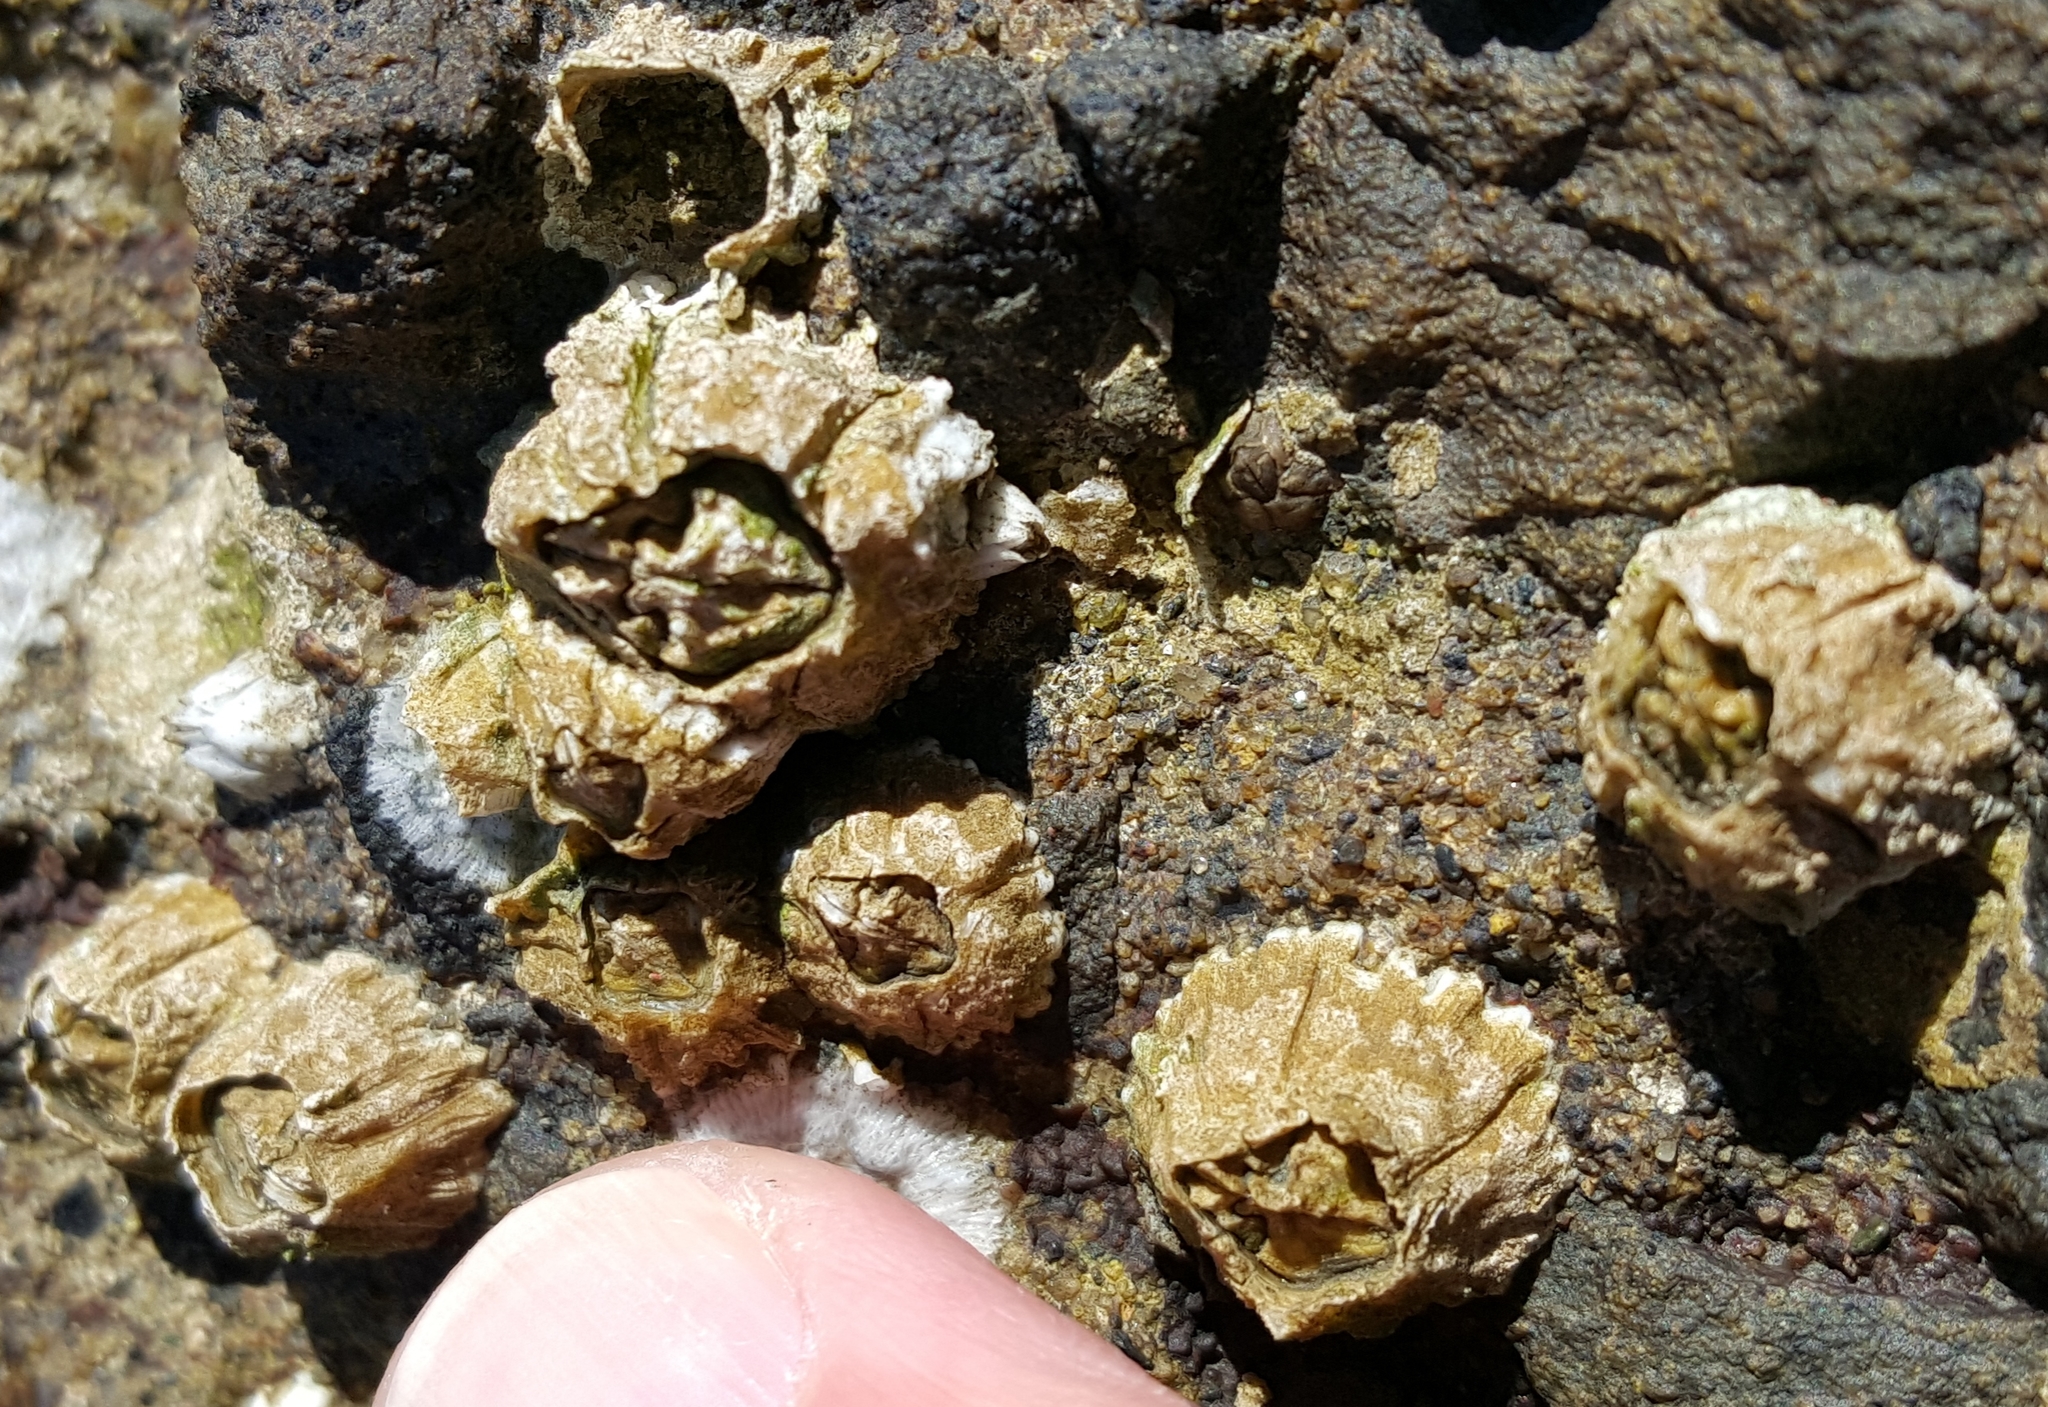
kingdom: Animalia
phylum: Arthropoda
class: Maxillopoda
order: Sessilia
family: Balanidae
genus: Balanus
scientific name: Balanus glandula
